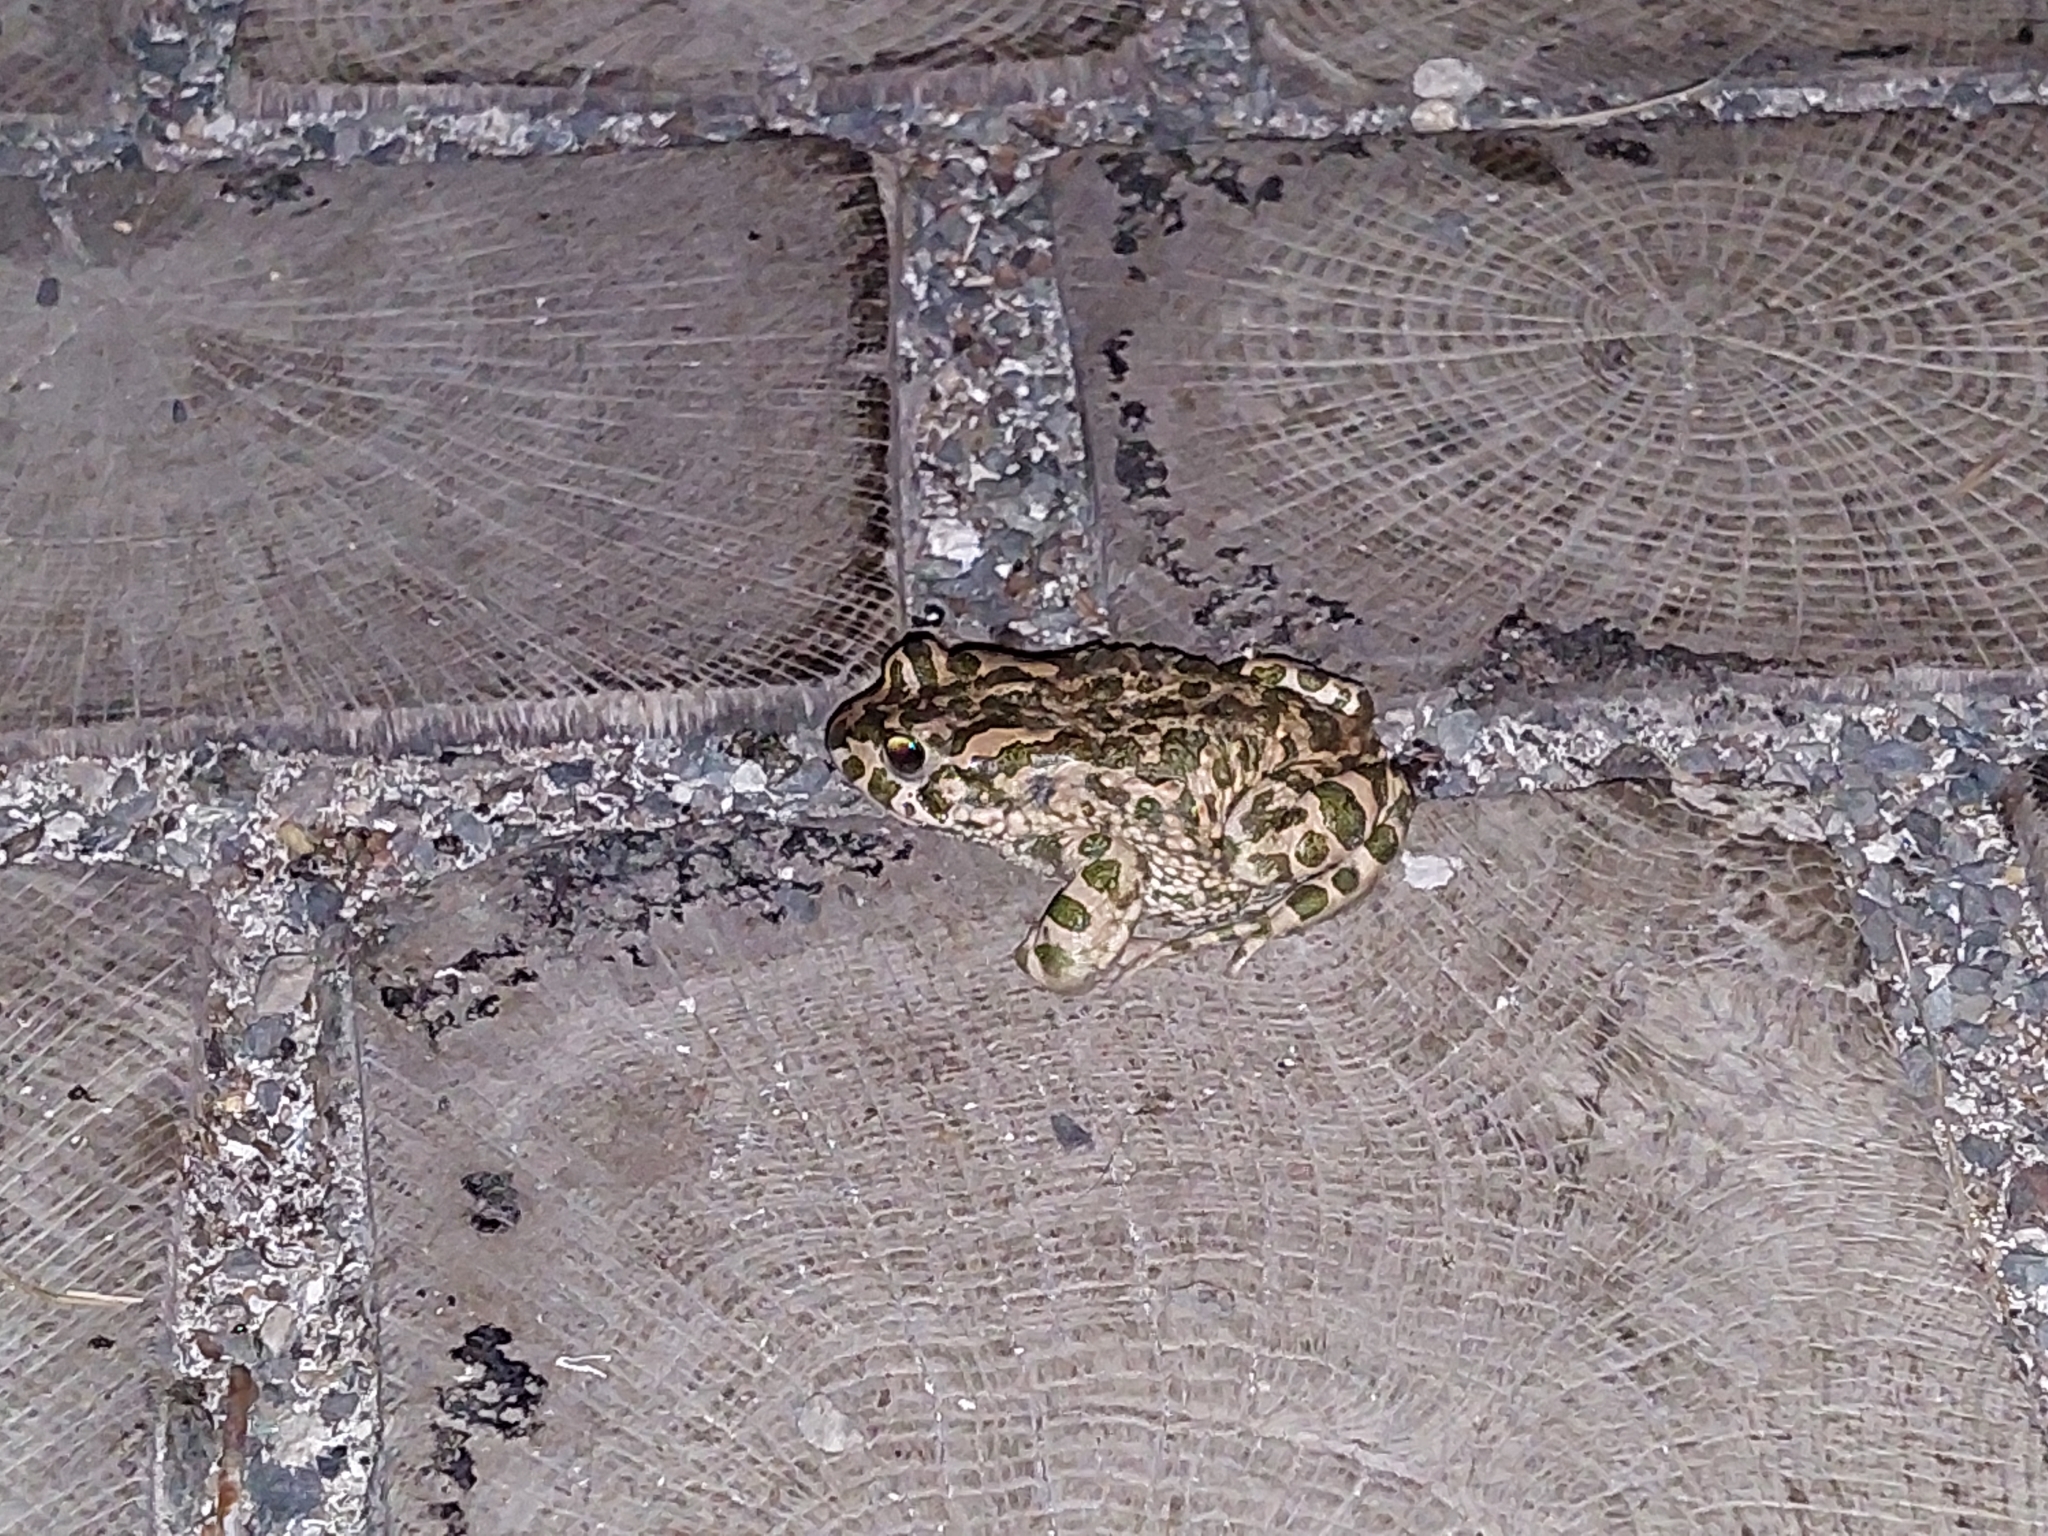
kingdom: Animalia
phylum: Chordata
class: Amphibia
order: Anura
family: Bufonidae
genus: Bufotes
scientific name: Bufotes viridis
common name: European green toad
